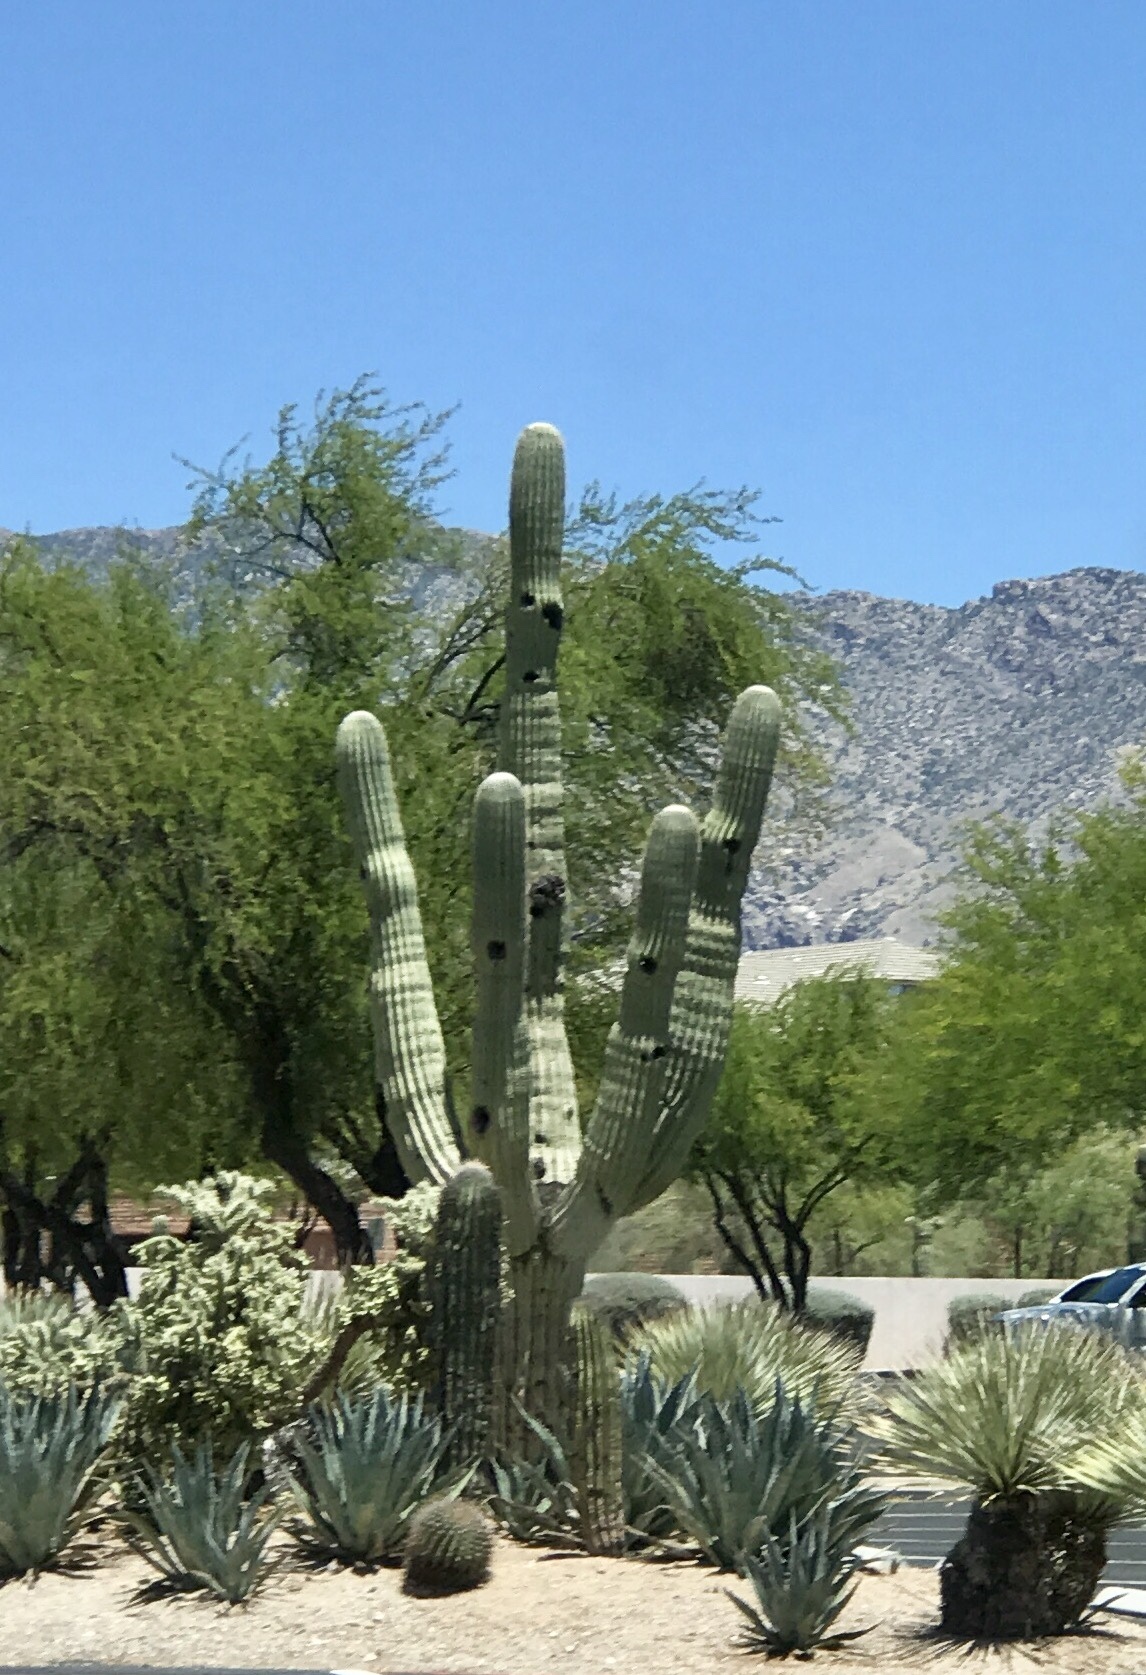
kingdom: Plantae
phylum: Tracheophyta
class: Magnoliopsida
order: Caryophyllales
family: Cactaceae
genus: Carnegiea
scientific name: Carnegiea gigantea
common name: Saguaro
